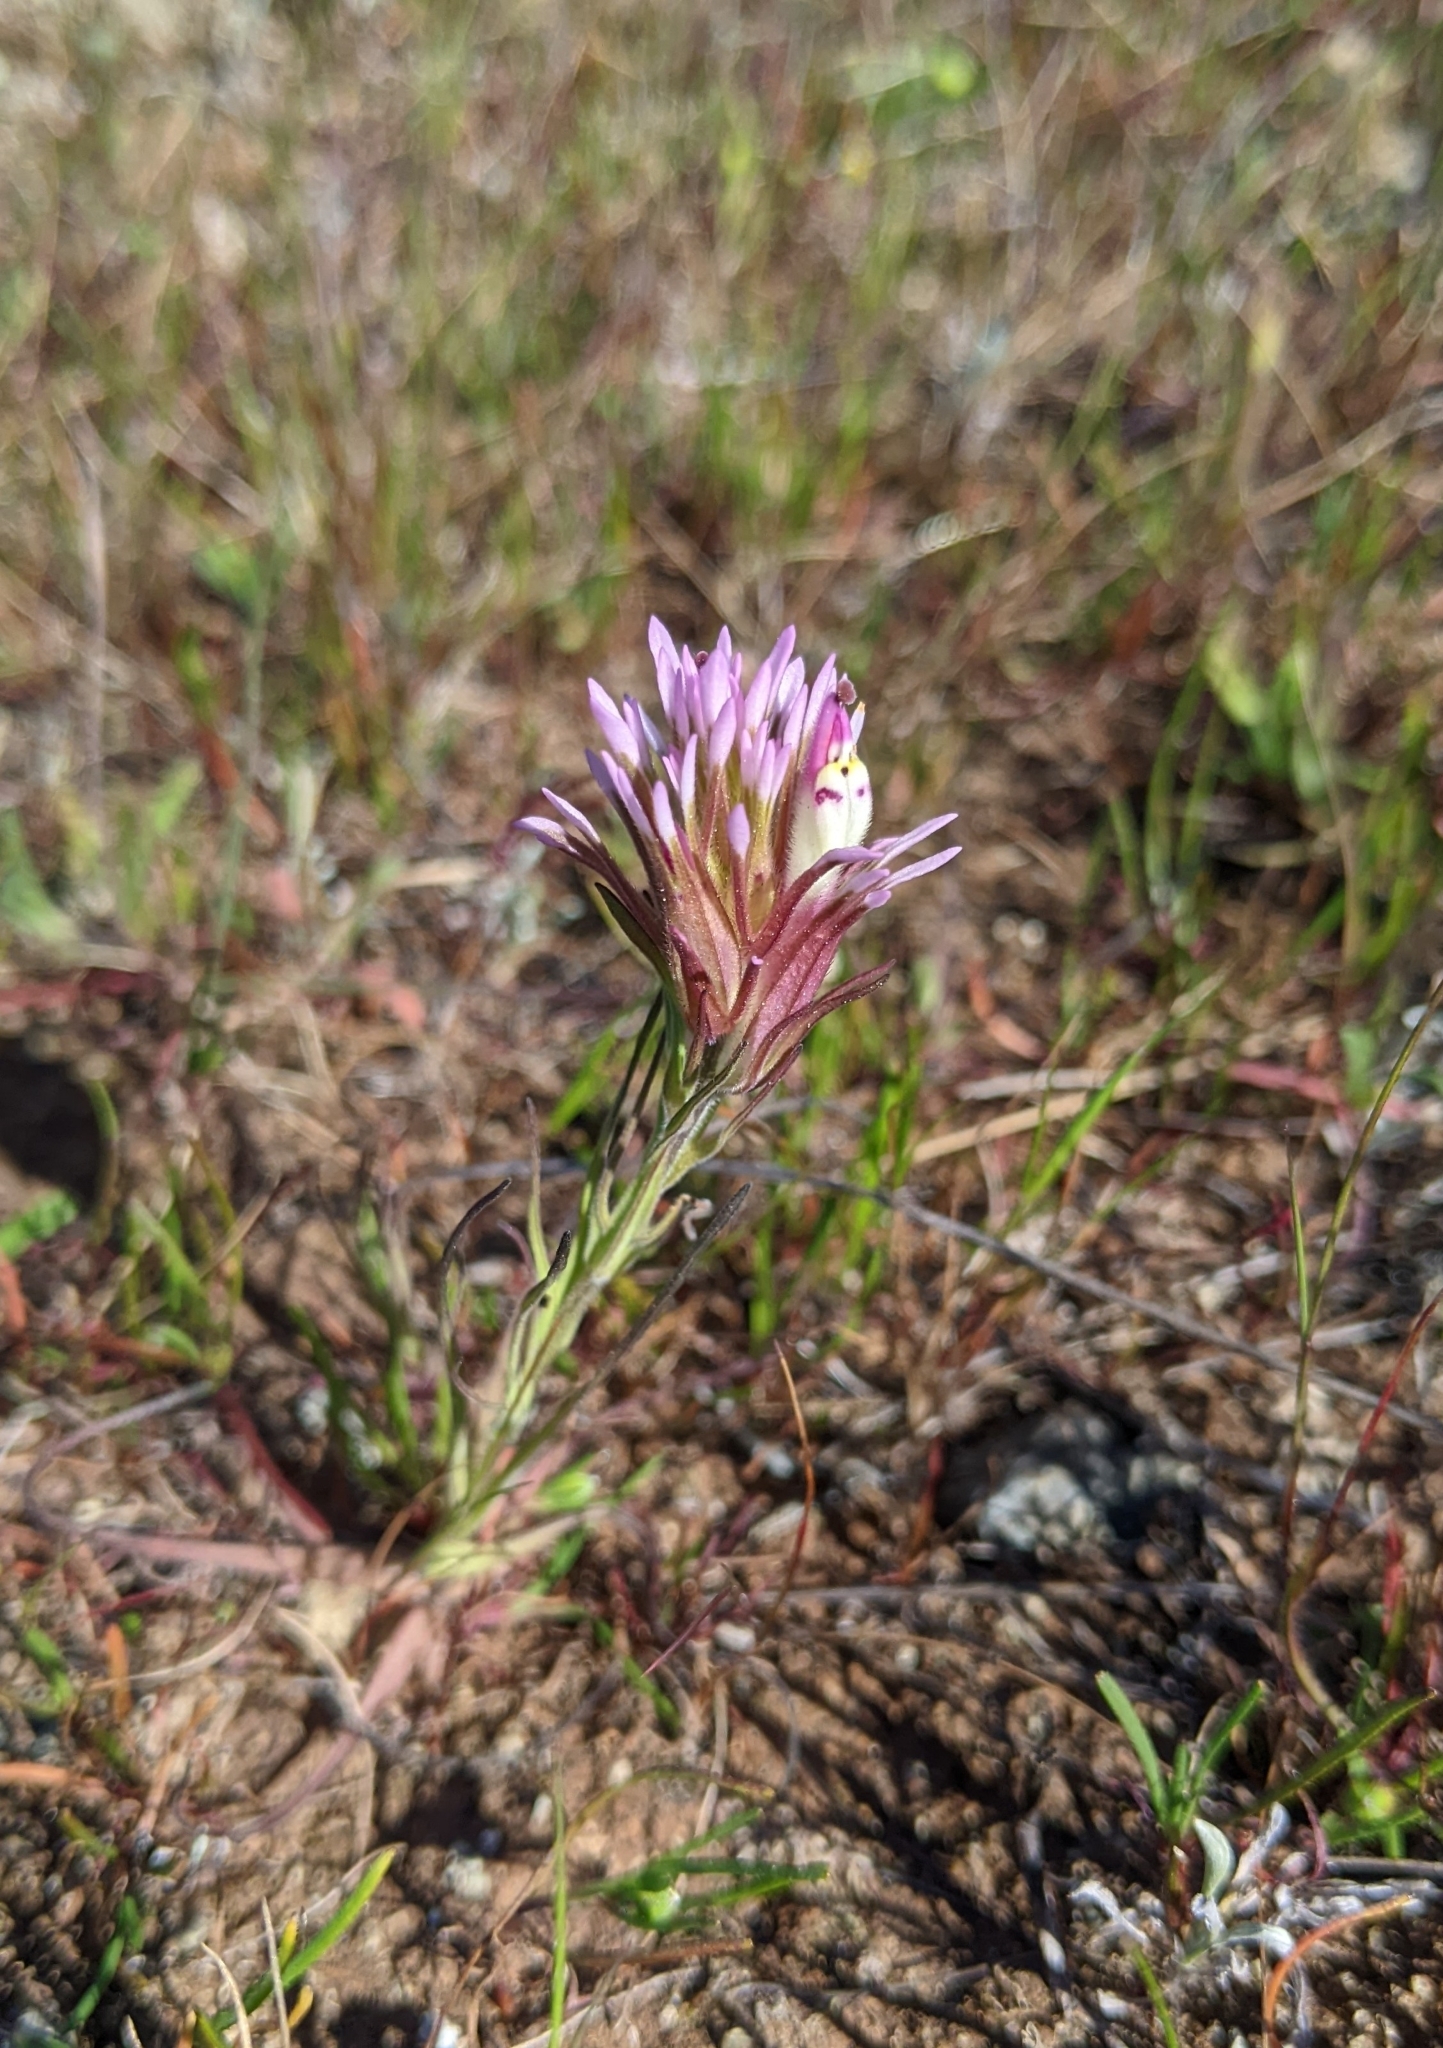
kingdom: Plantae
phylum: Tracheophyta
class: Magnoliopsida
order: Lamiales
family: Orobanchaceae
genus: Castilleja
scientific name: Castilleja densiflora
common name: Dense-flower indian paintbrush
